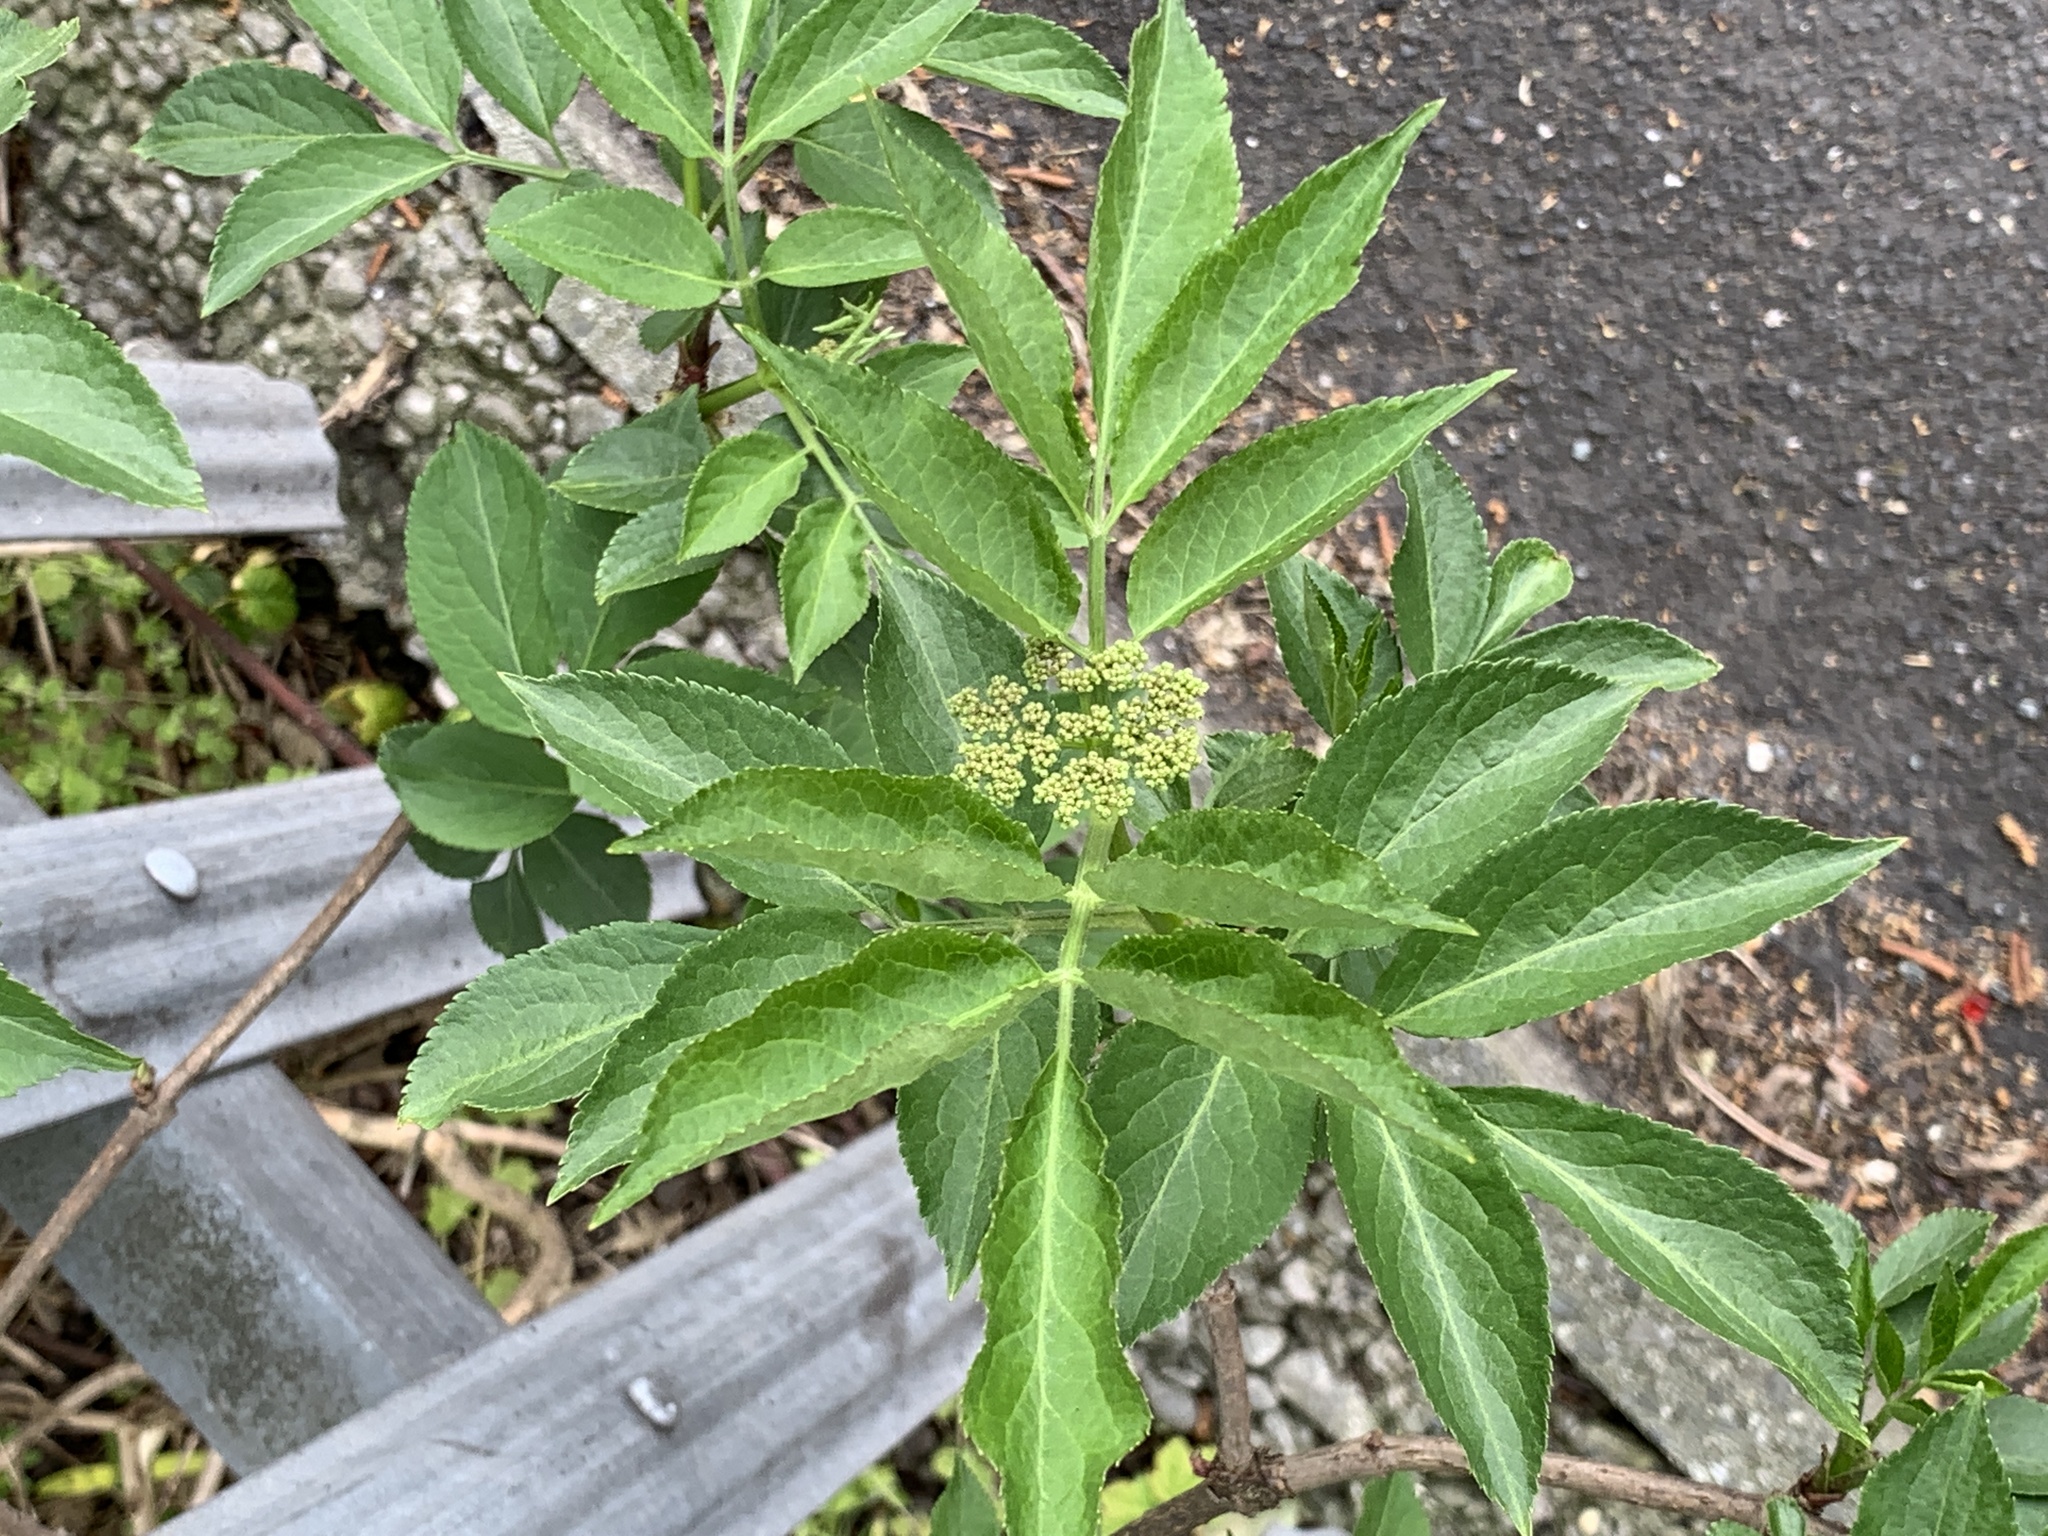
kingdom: Plantae
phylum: Tracheophyta
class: Magnoliopsida
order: Dipsacales
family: Viburnaceae
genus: Sambucus
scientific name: Sambucus nigra
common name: Elder
